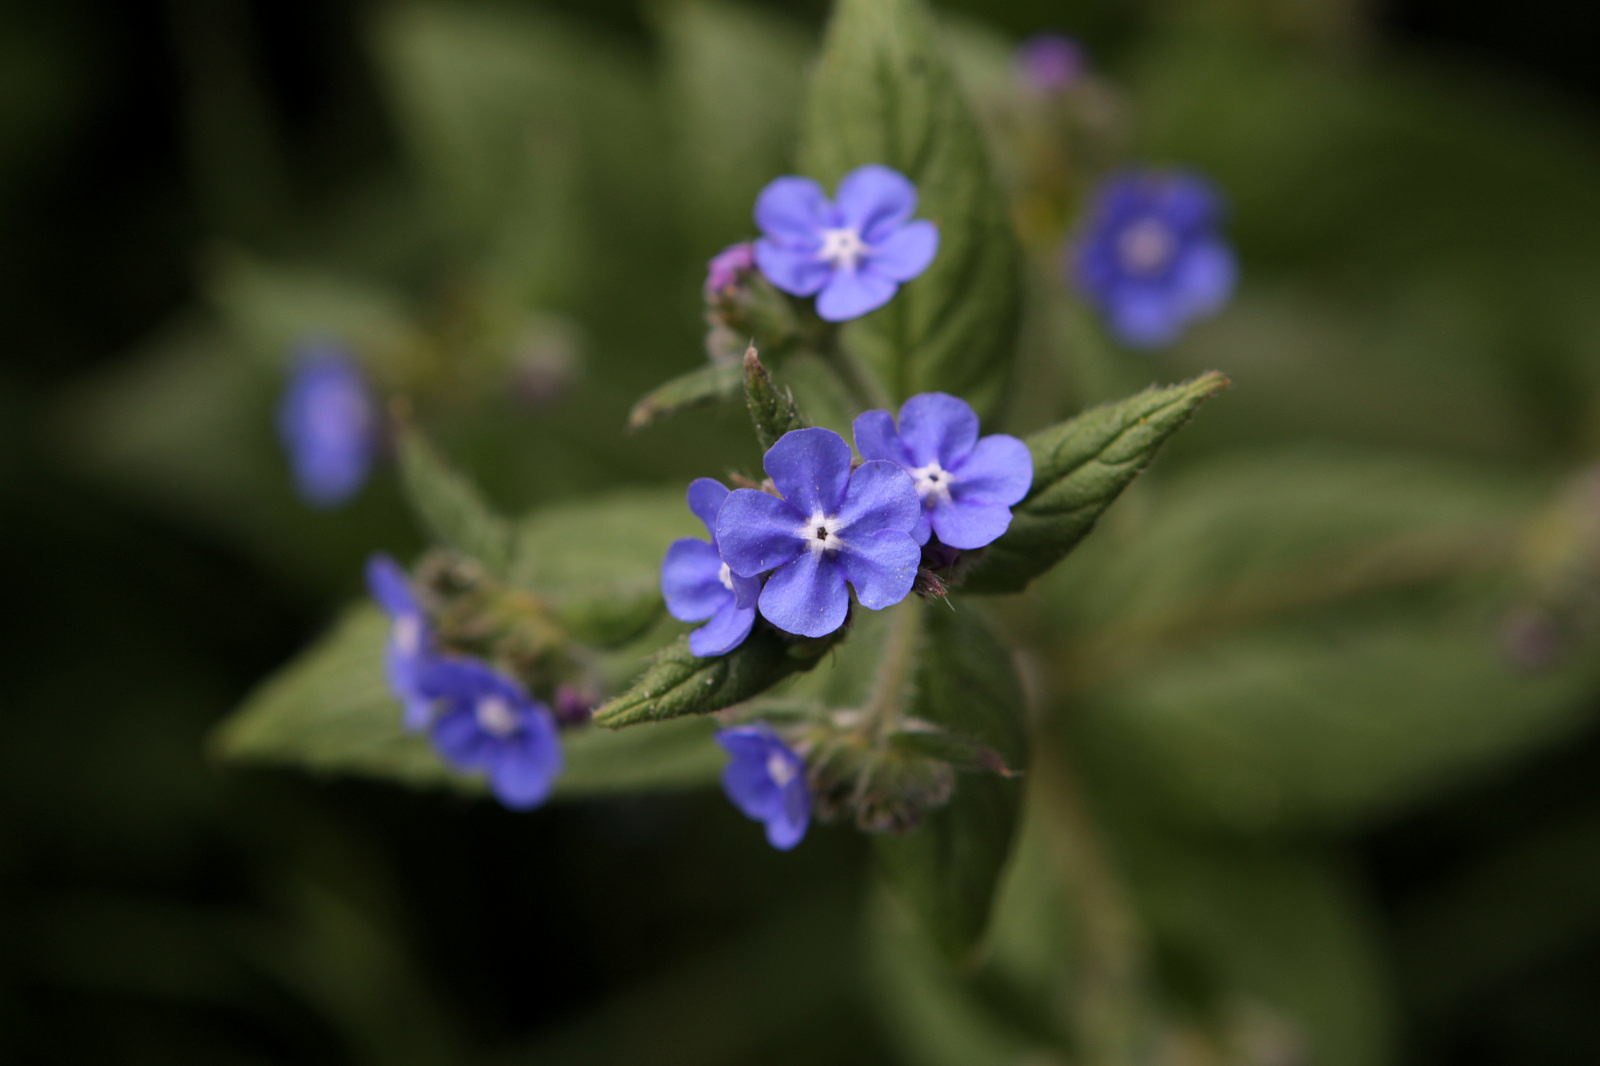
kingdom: Plantae
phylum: Tracheophyta
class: Magnoliopsida
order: Boraginales
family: Boraginaceae
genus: Pentaglottis
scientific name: Pentaglottis sempervirens
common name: Green alkanet
